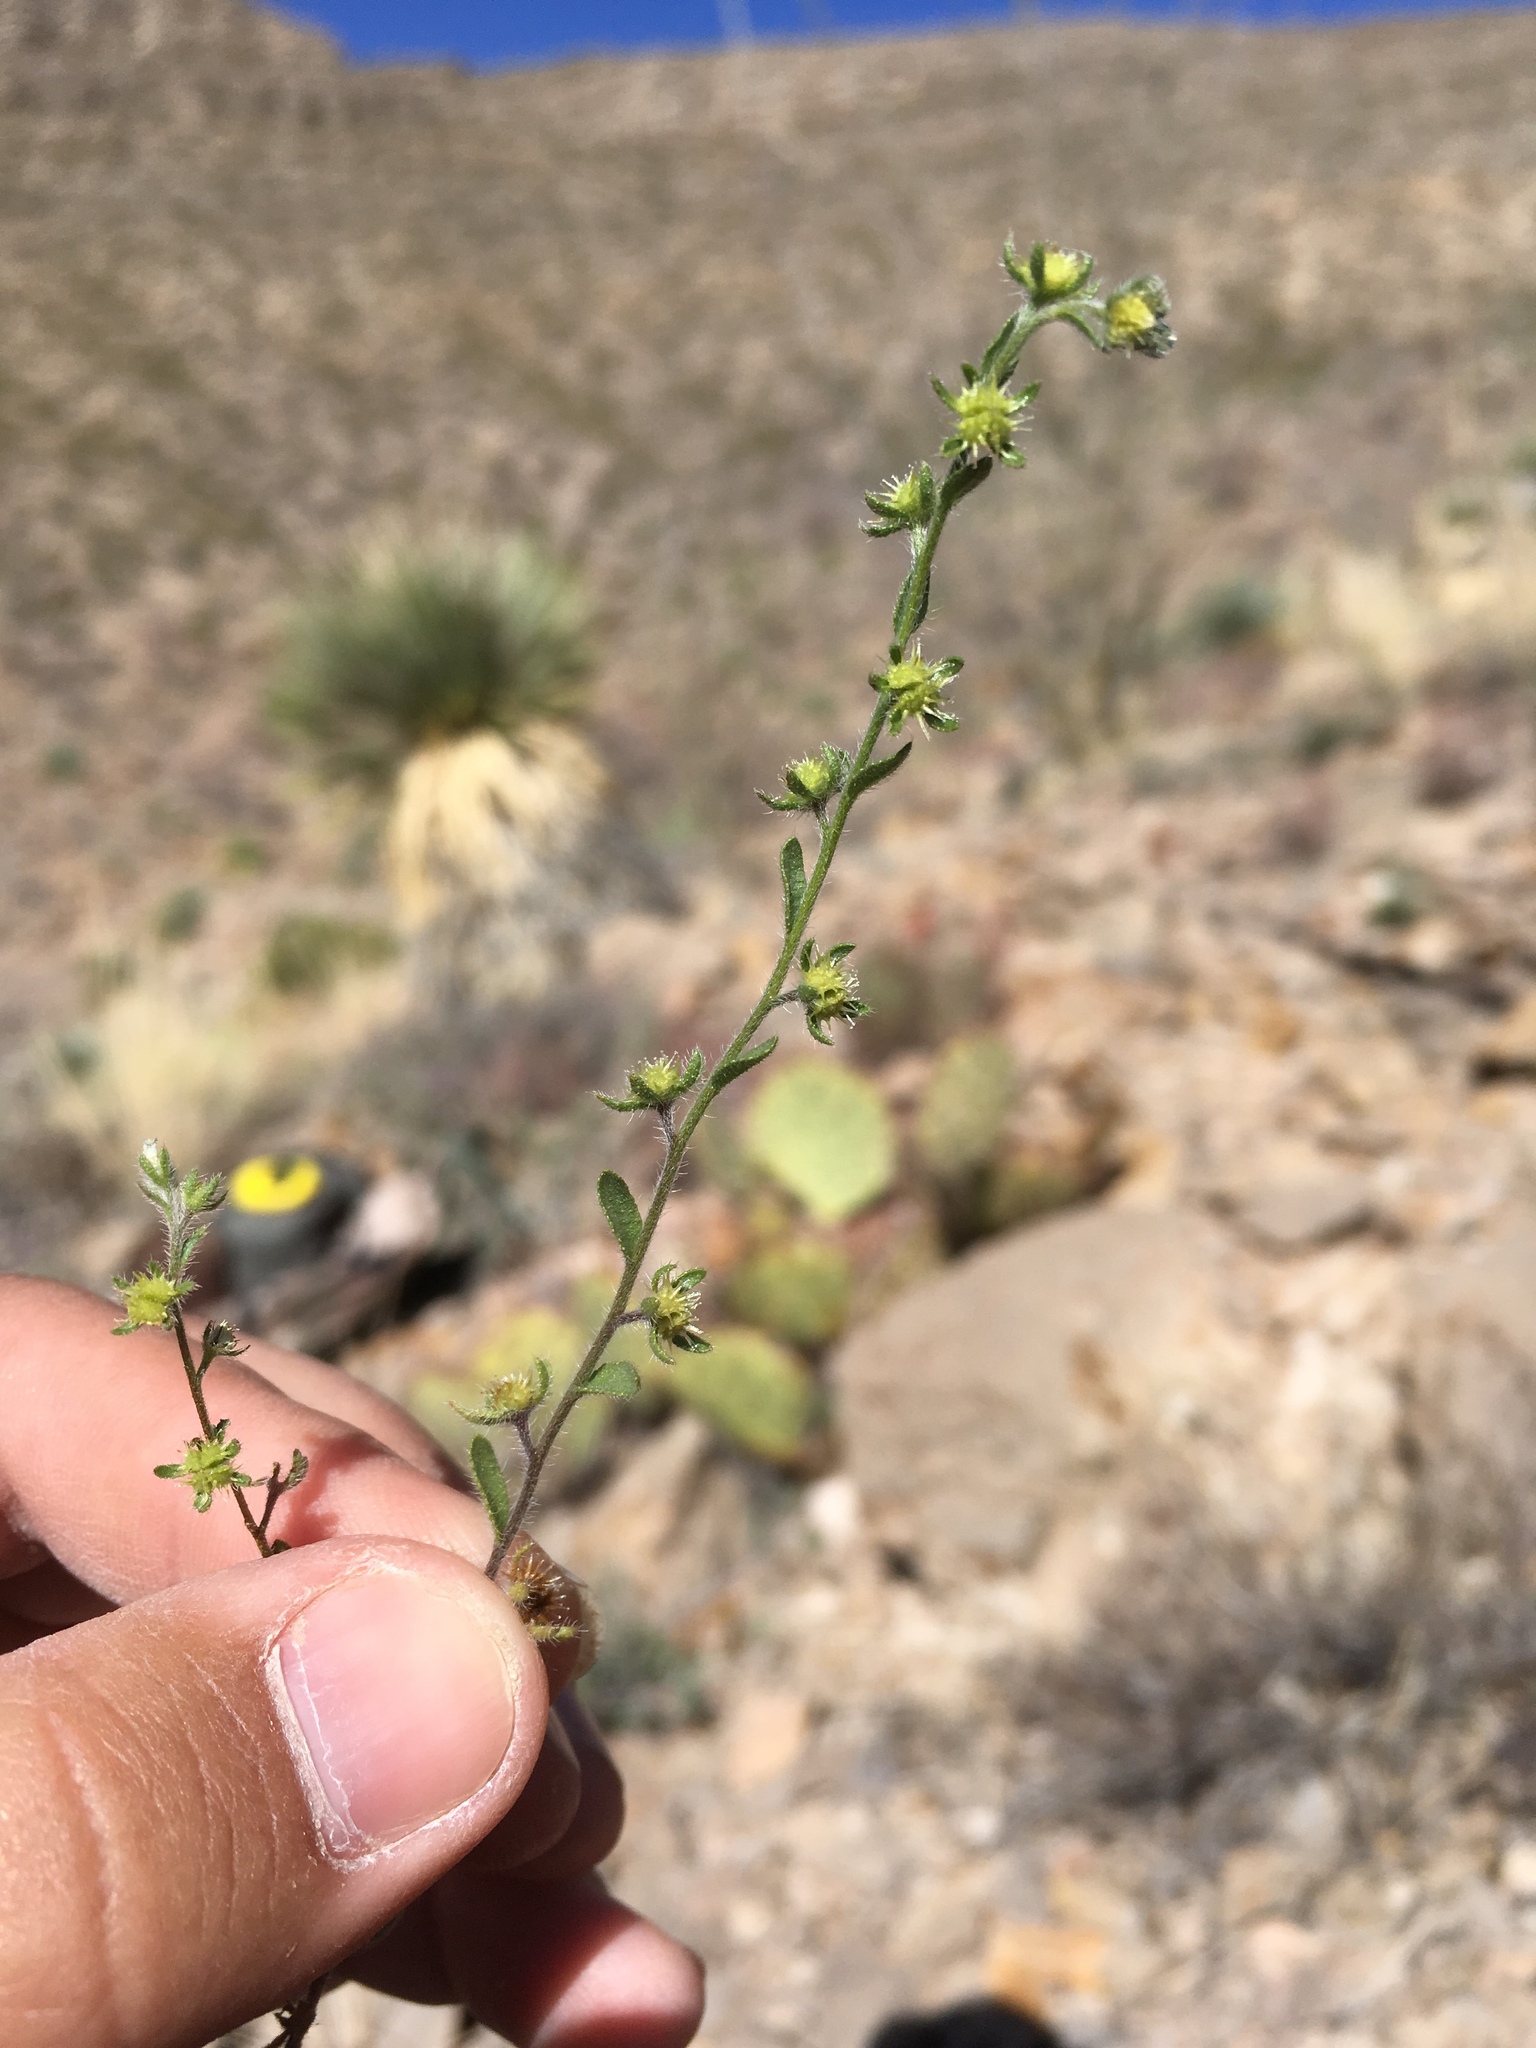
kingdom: Plantae
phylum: Tracheophyta
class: Magnoliopsida
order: Boraginales
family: Boraginaceae
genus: Lappula
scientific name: Lappula occidentalis
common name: Western stickseed
